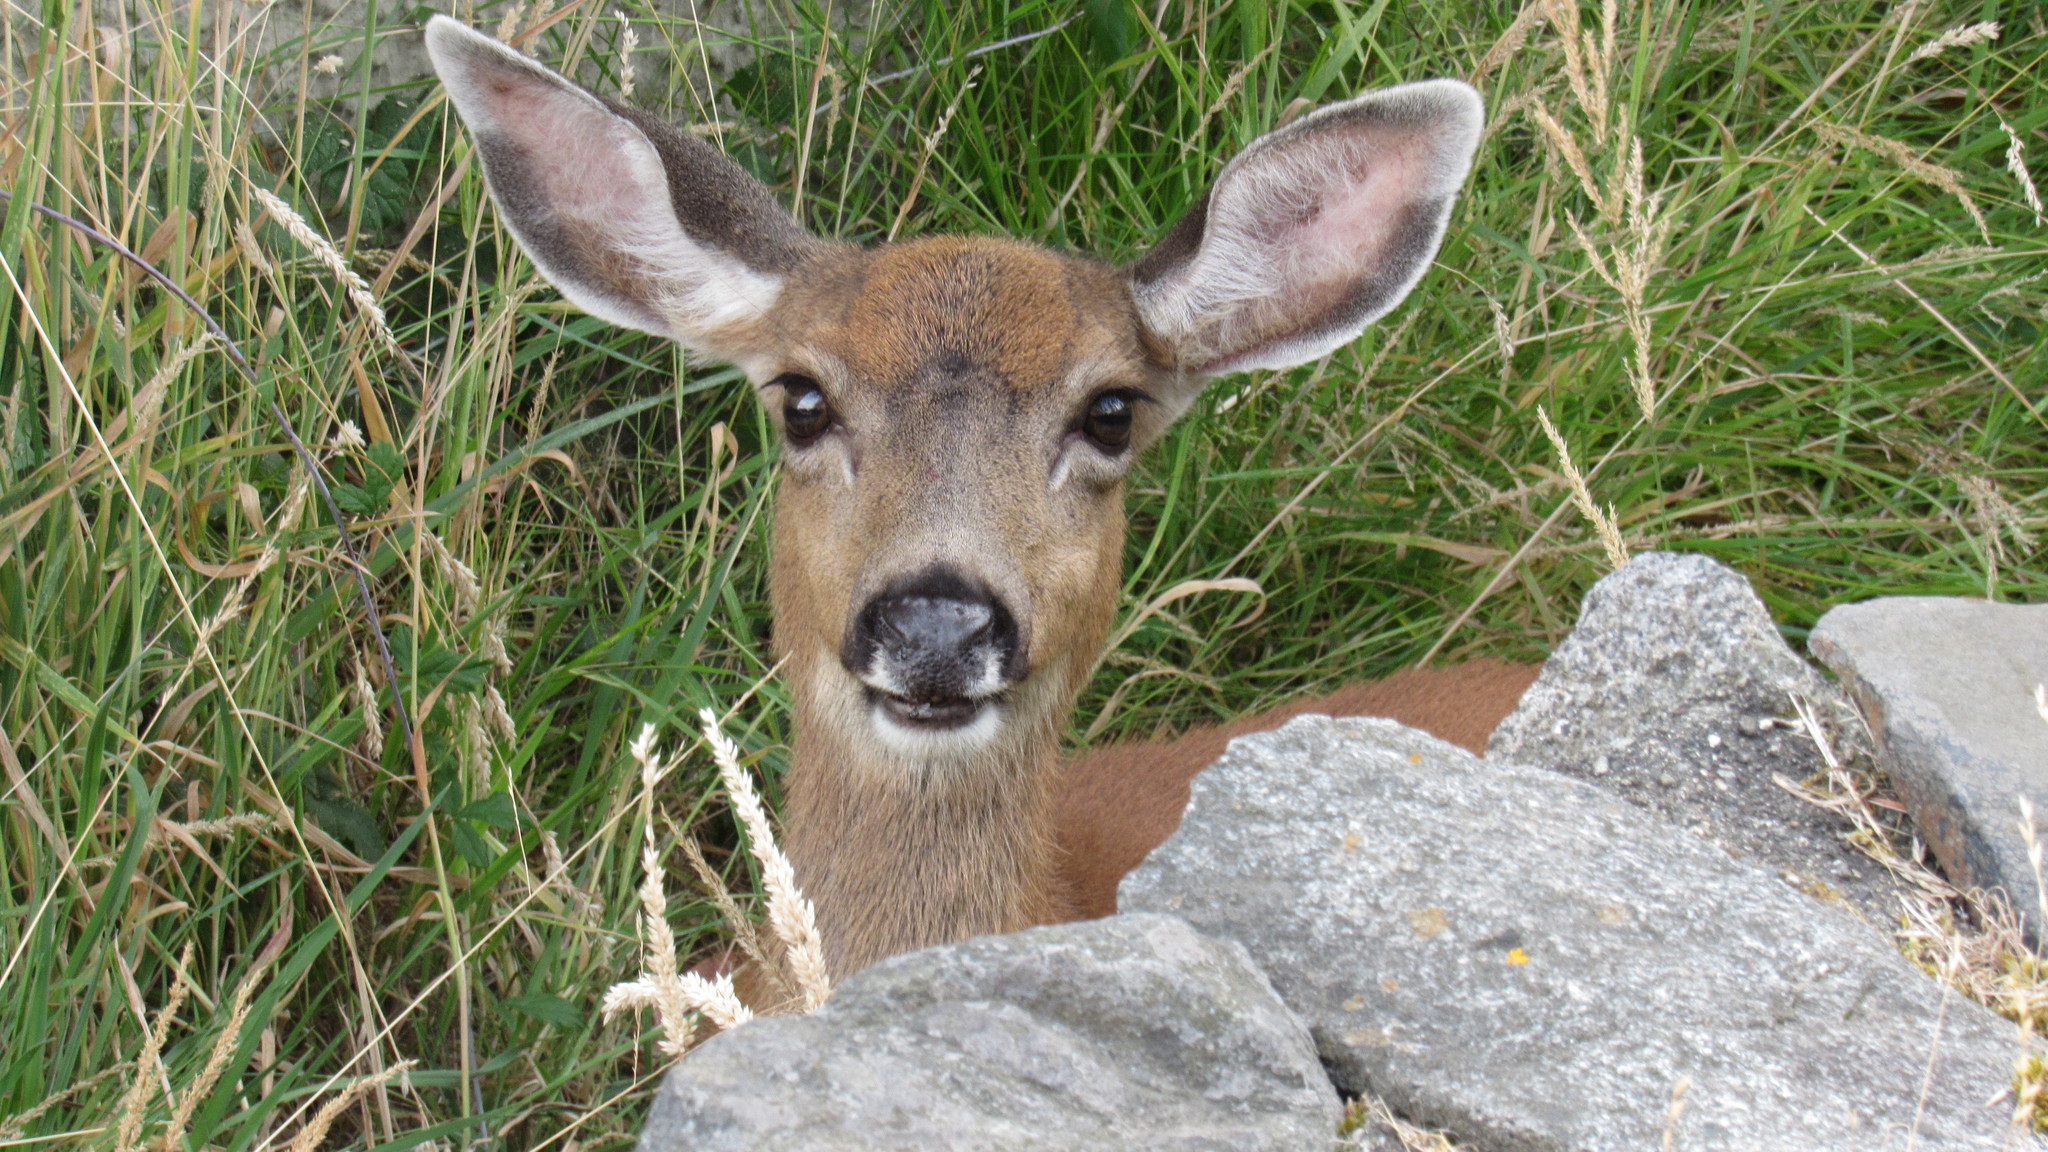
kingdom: Animalia
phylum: Chordata
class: Mammalia
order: Artiodactyla
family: Cervidae
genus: Odocoileus
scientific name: Odocoileus hemionus
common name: Mule deer
